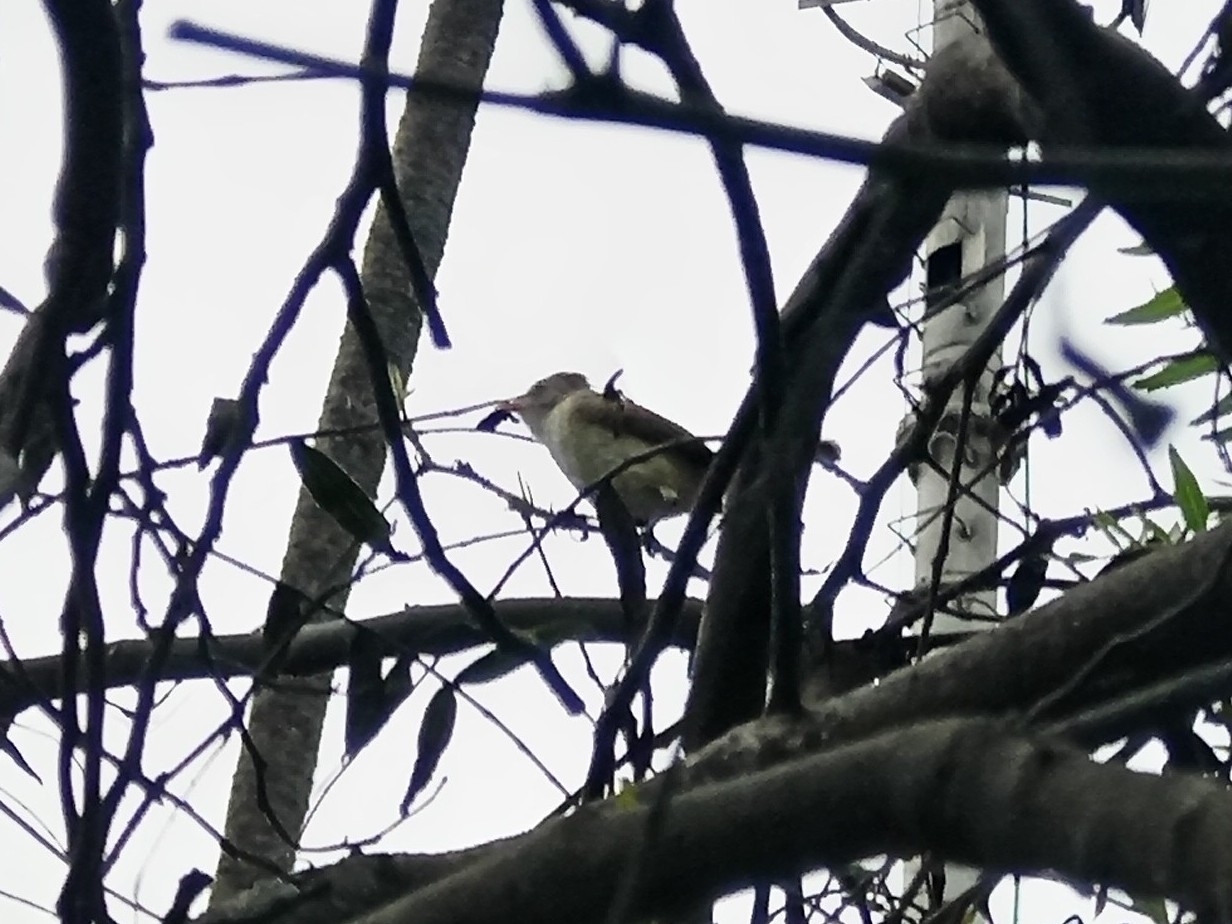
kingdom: Animalia
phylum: Chordata
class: Aves
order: Passeriformes
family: Tyrannidae
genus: Camptostoma
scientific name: Camptostoma obsoletum
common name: Southern beardless-tyrannulet
